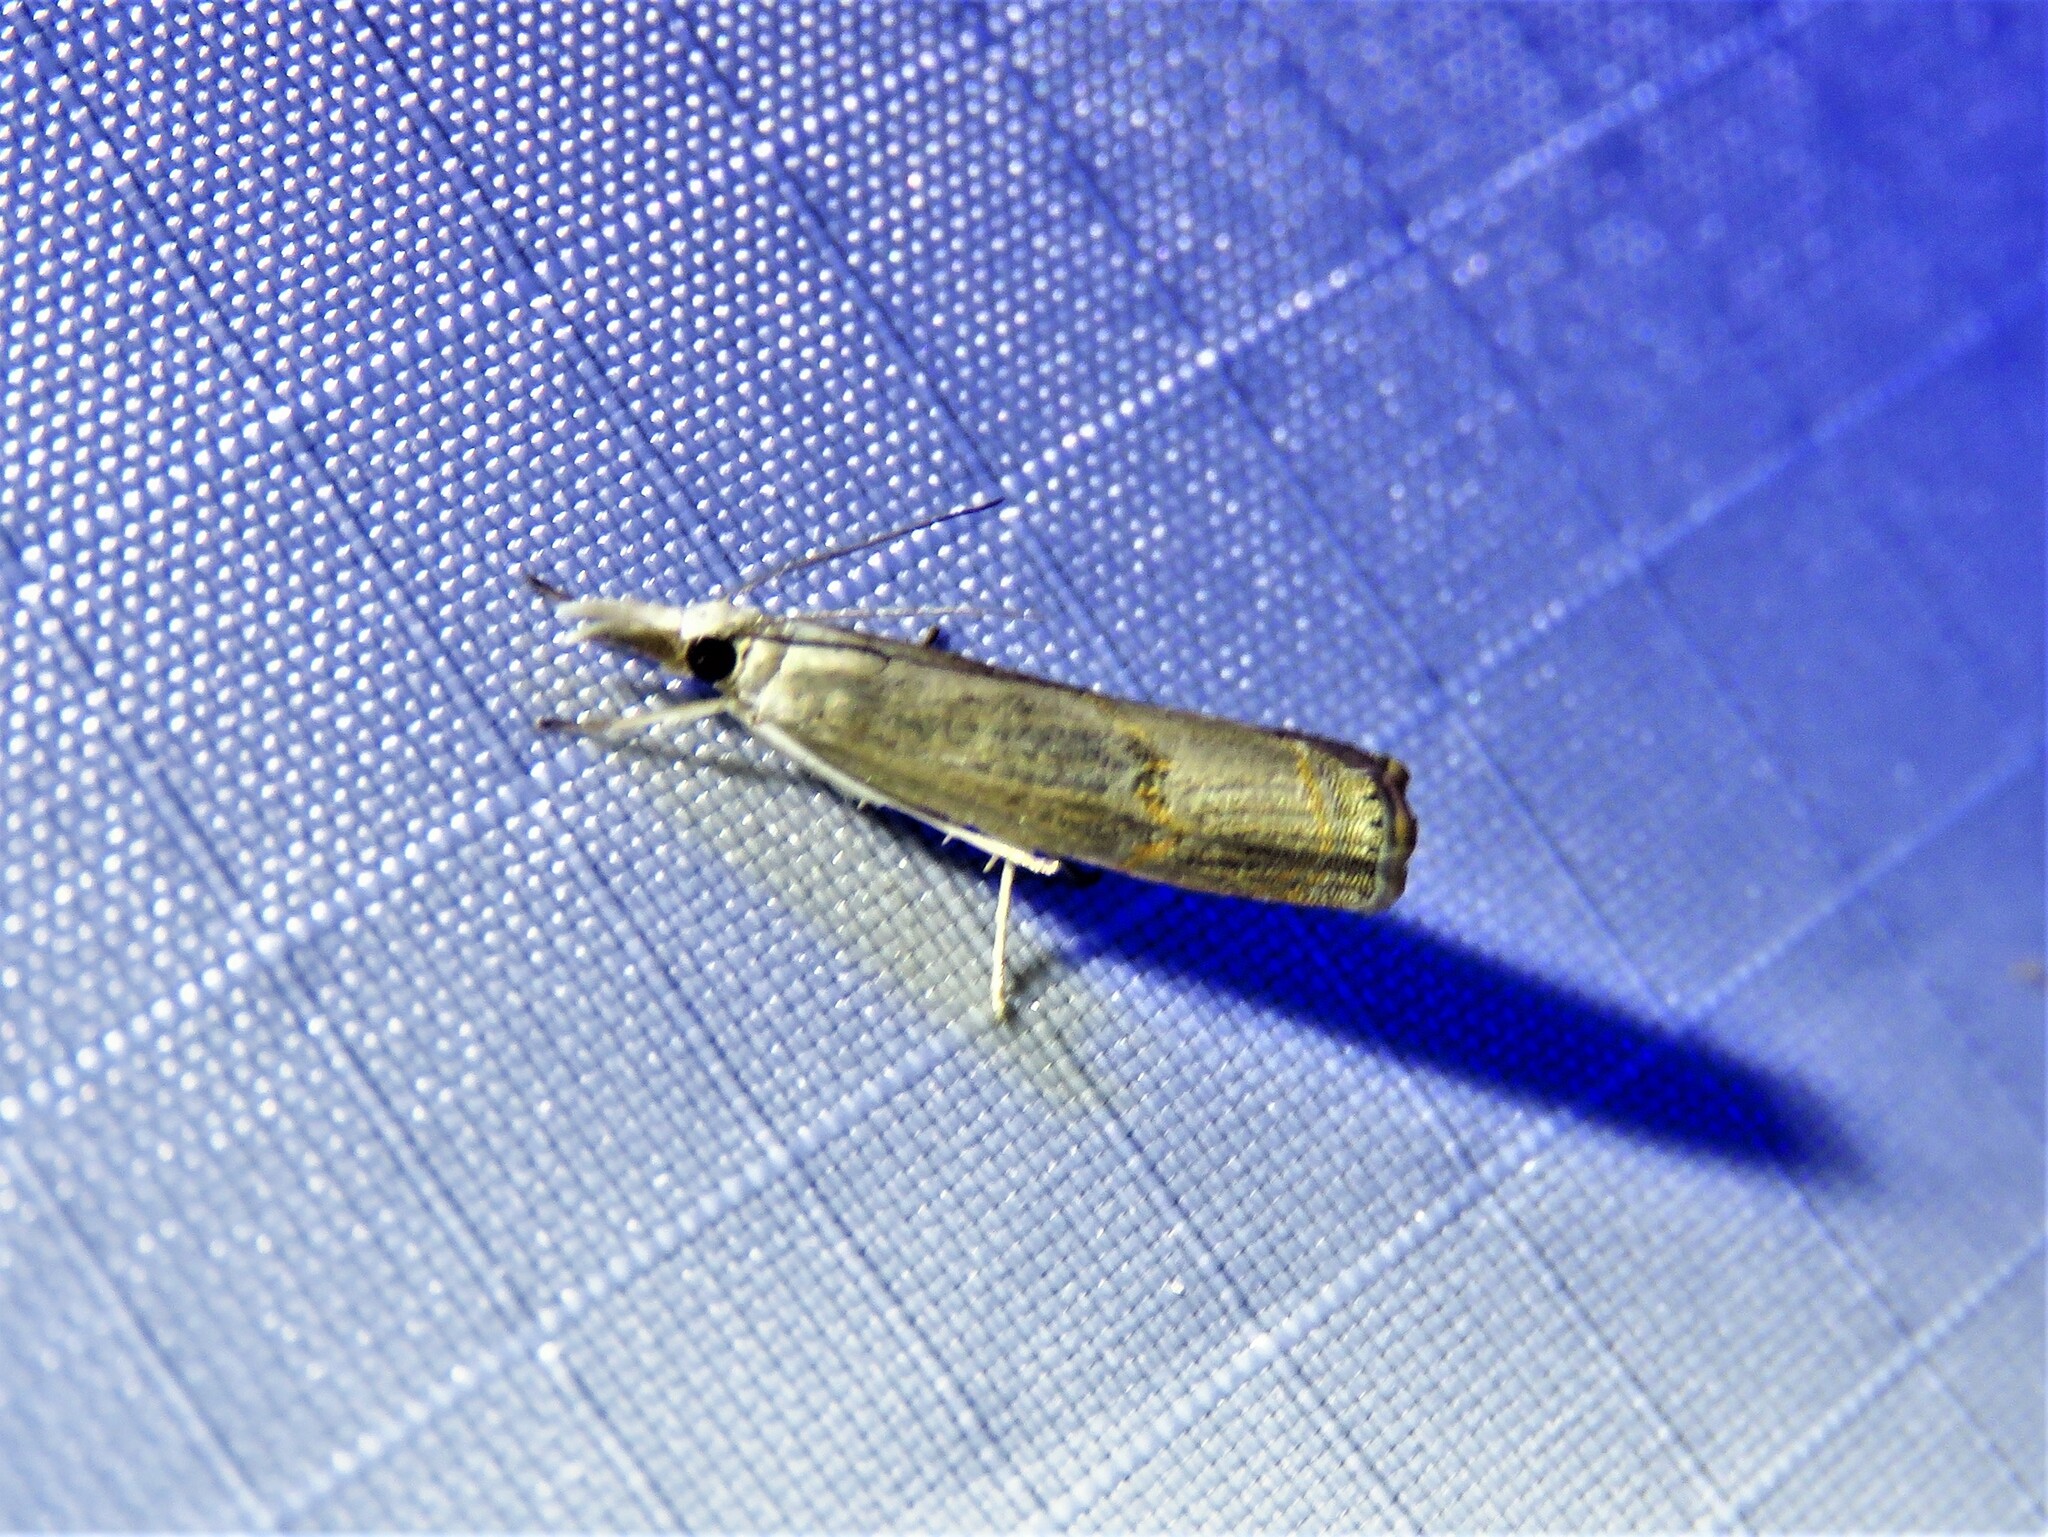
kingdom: Animalia
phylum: Arthropoda
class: Insecta
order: Lepidoptera
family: Crambidae
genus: Parapediasia
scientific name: Parapediasia teterellus
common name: Bluegrass webworm moth
